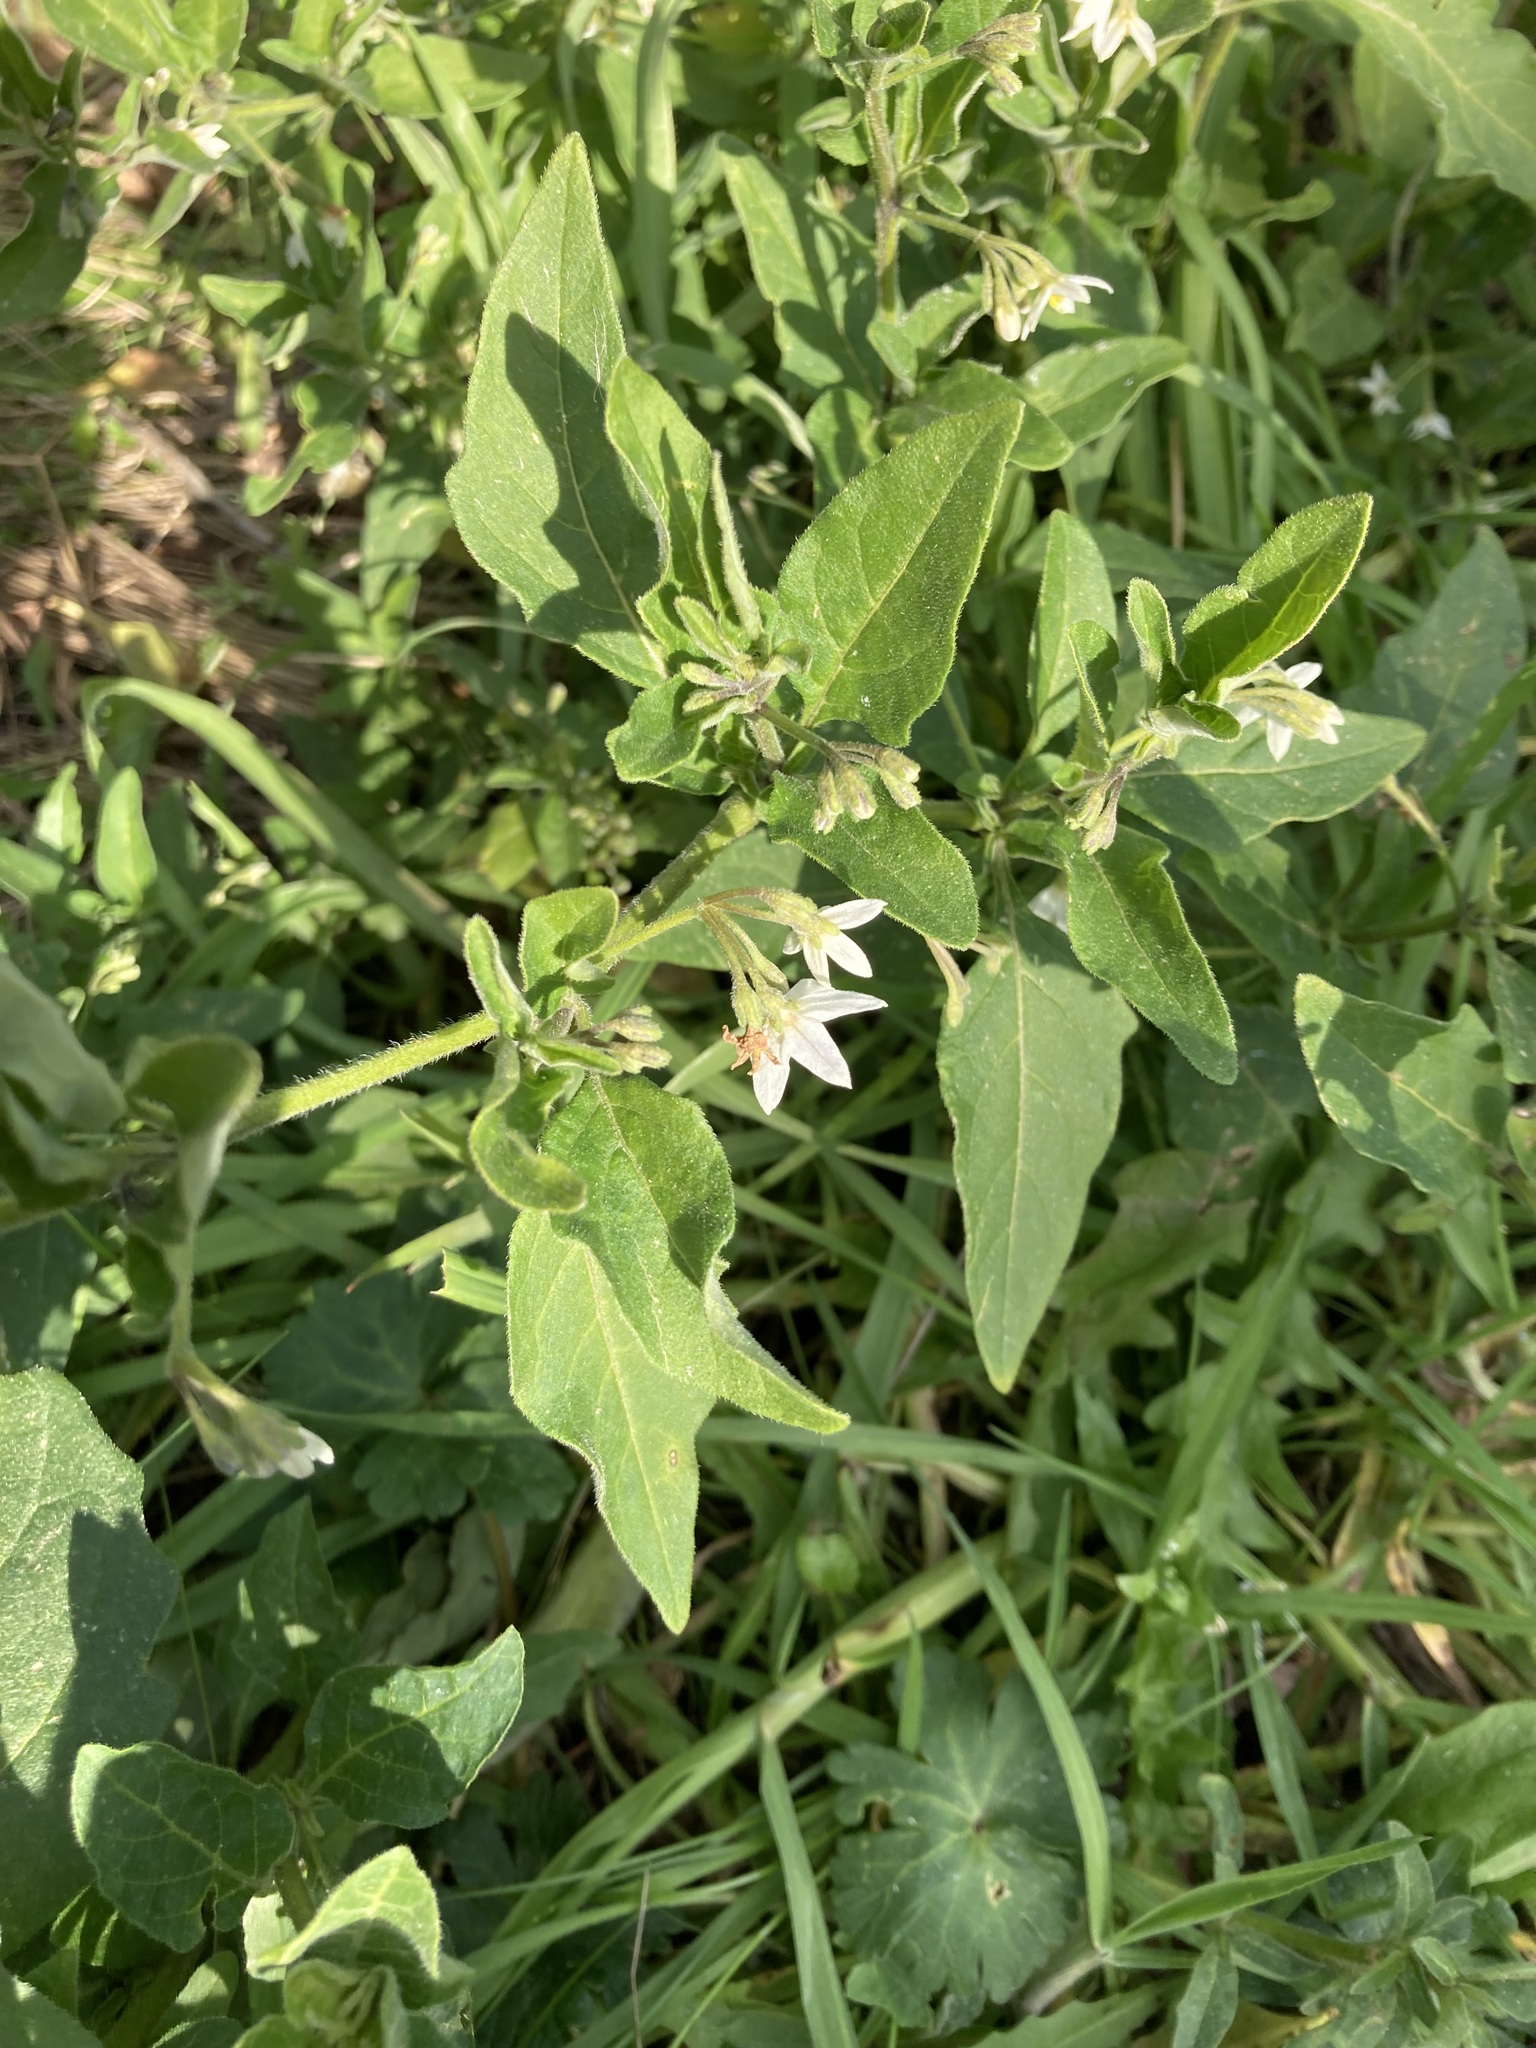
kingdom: Plantae
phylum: Tracheophyta
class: Magnoliopsida
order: Solanales
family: Solanaceae
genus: Solanum
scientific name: Solanum chenopodioides
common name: Tall nightshade
